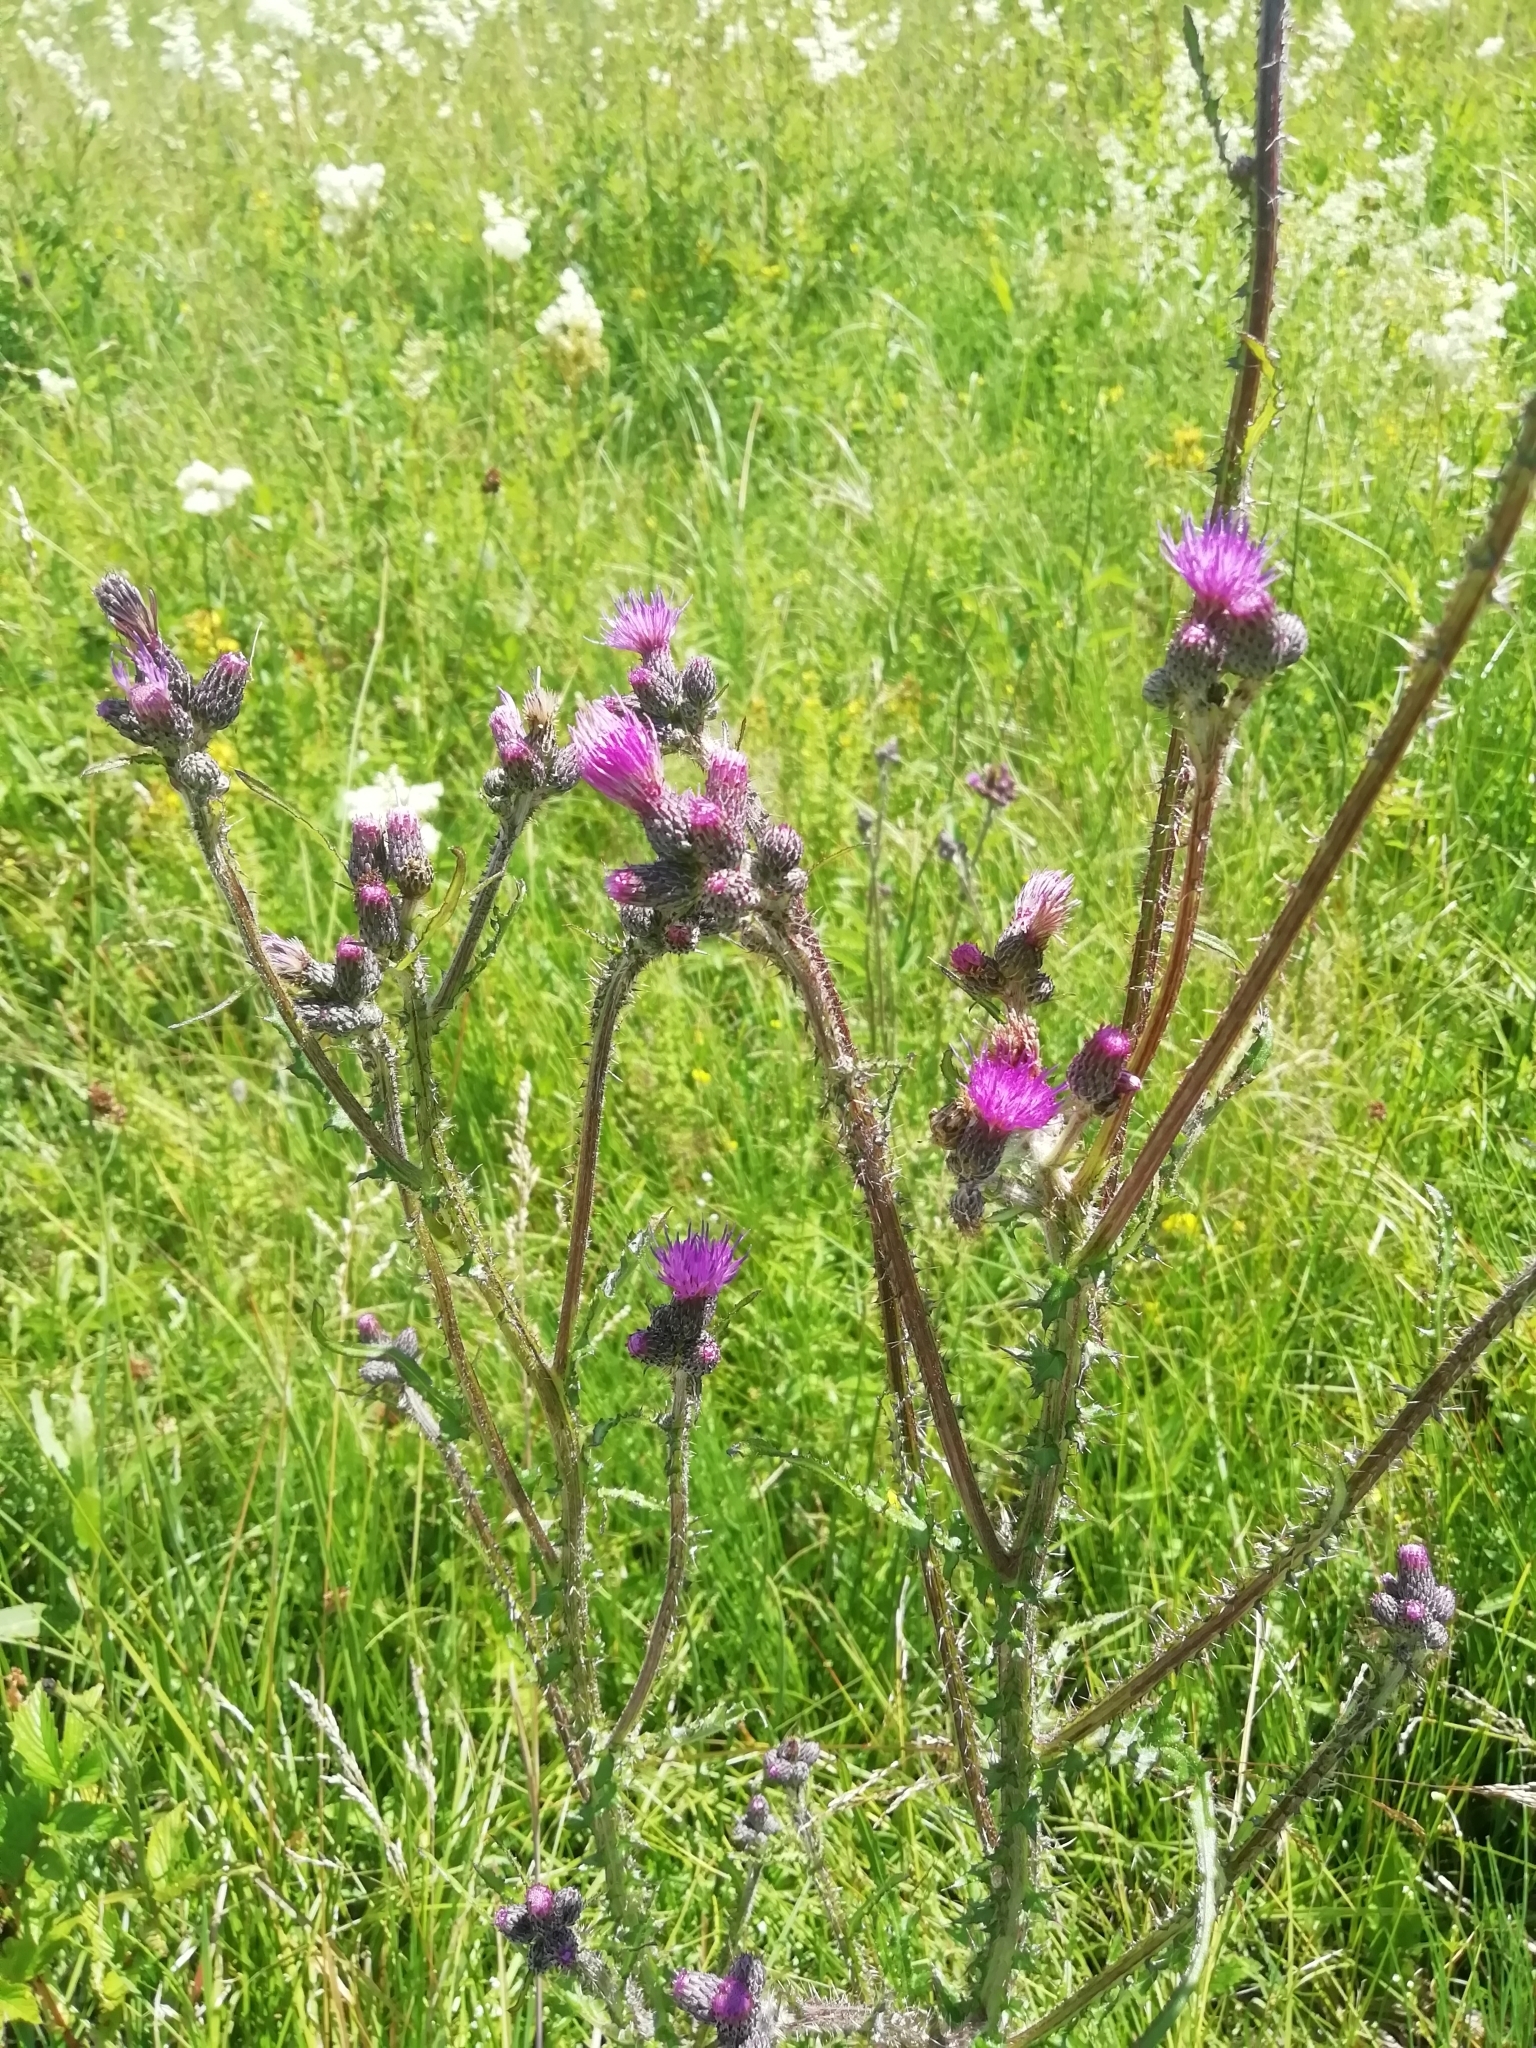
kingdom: Plantae
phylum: Tracheophyta
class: Magnoliopsida
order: Asterales
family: Asteraceae
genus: Cirsium
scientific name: Cirsium palustre
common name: Marsh thistle
